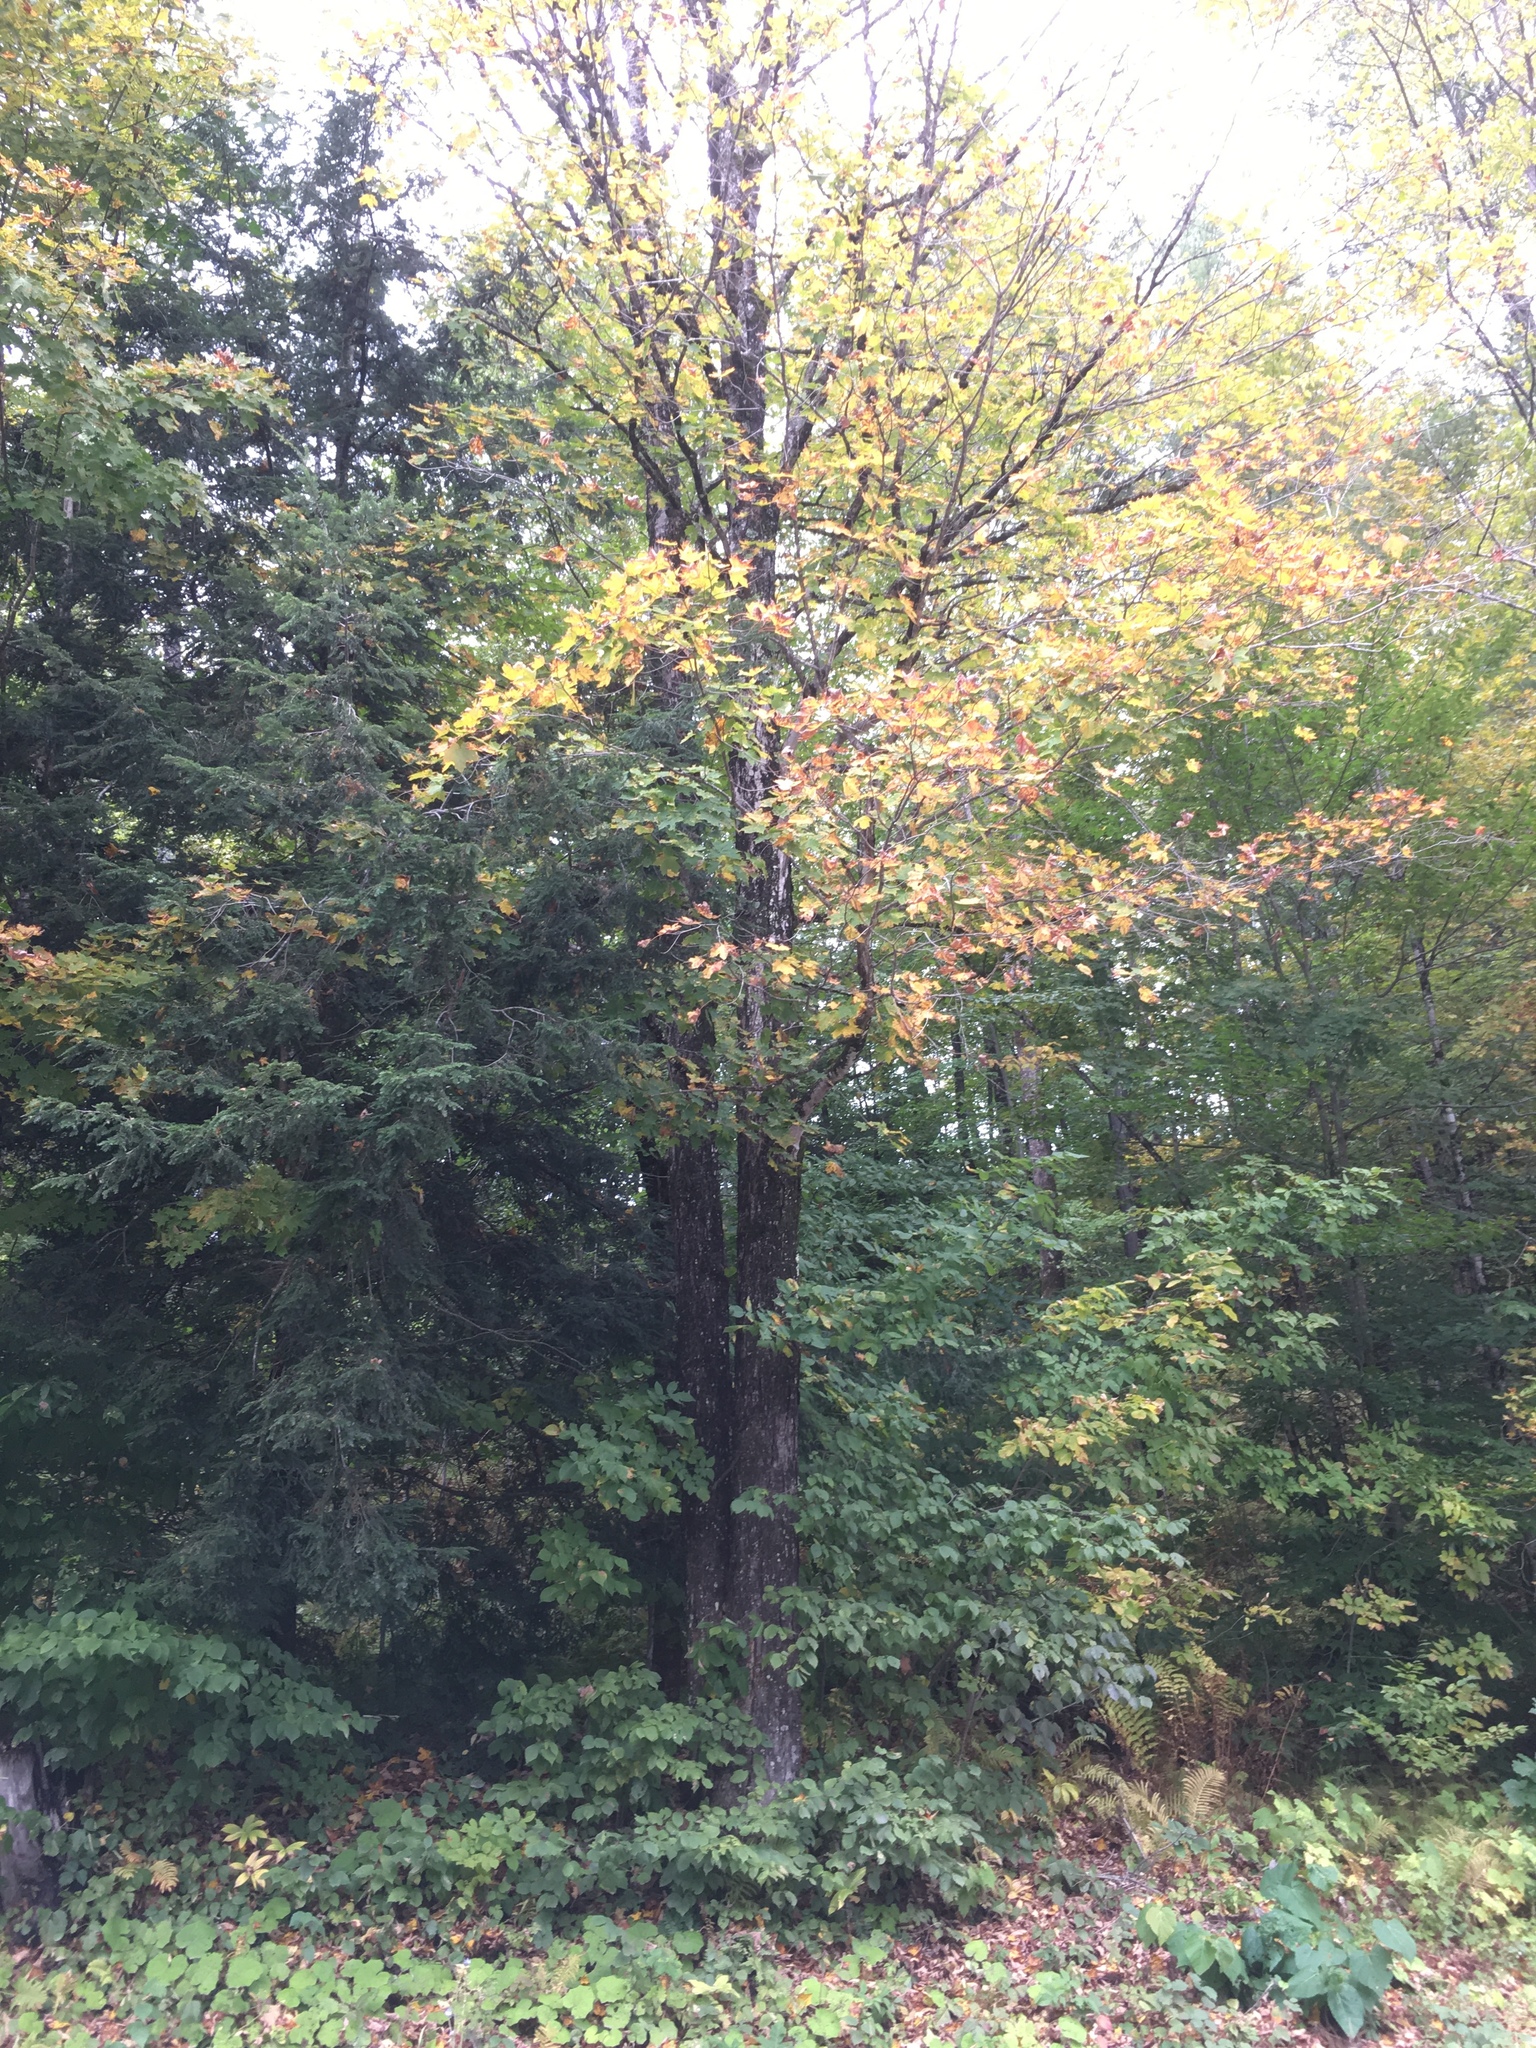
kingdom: Plantae
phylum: Tracheophyta
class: Magnoliopsida
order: Sapindales
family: Sapindaceae
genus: Acer
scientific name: Acer saccharum
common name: Sugar maple
